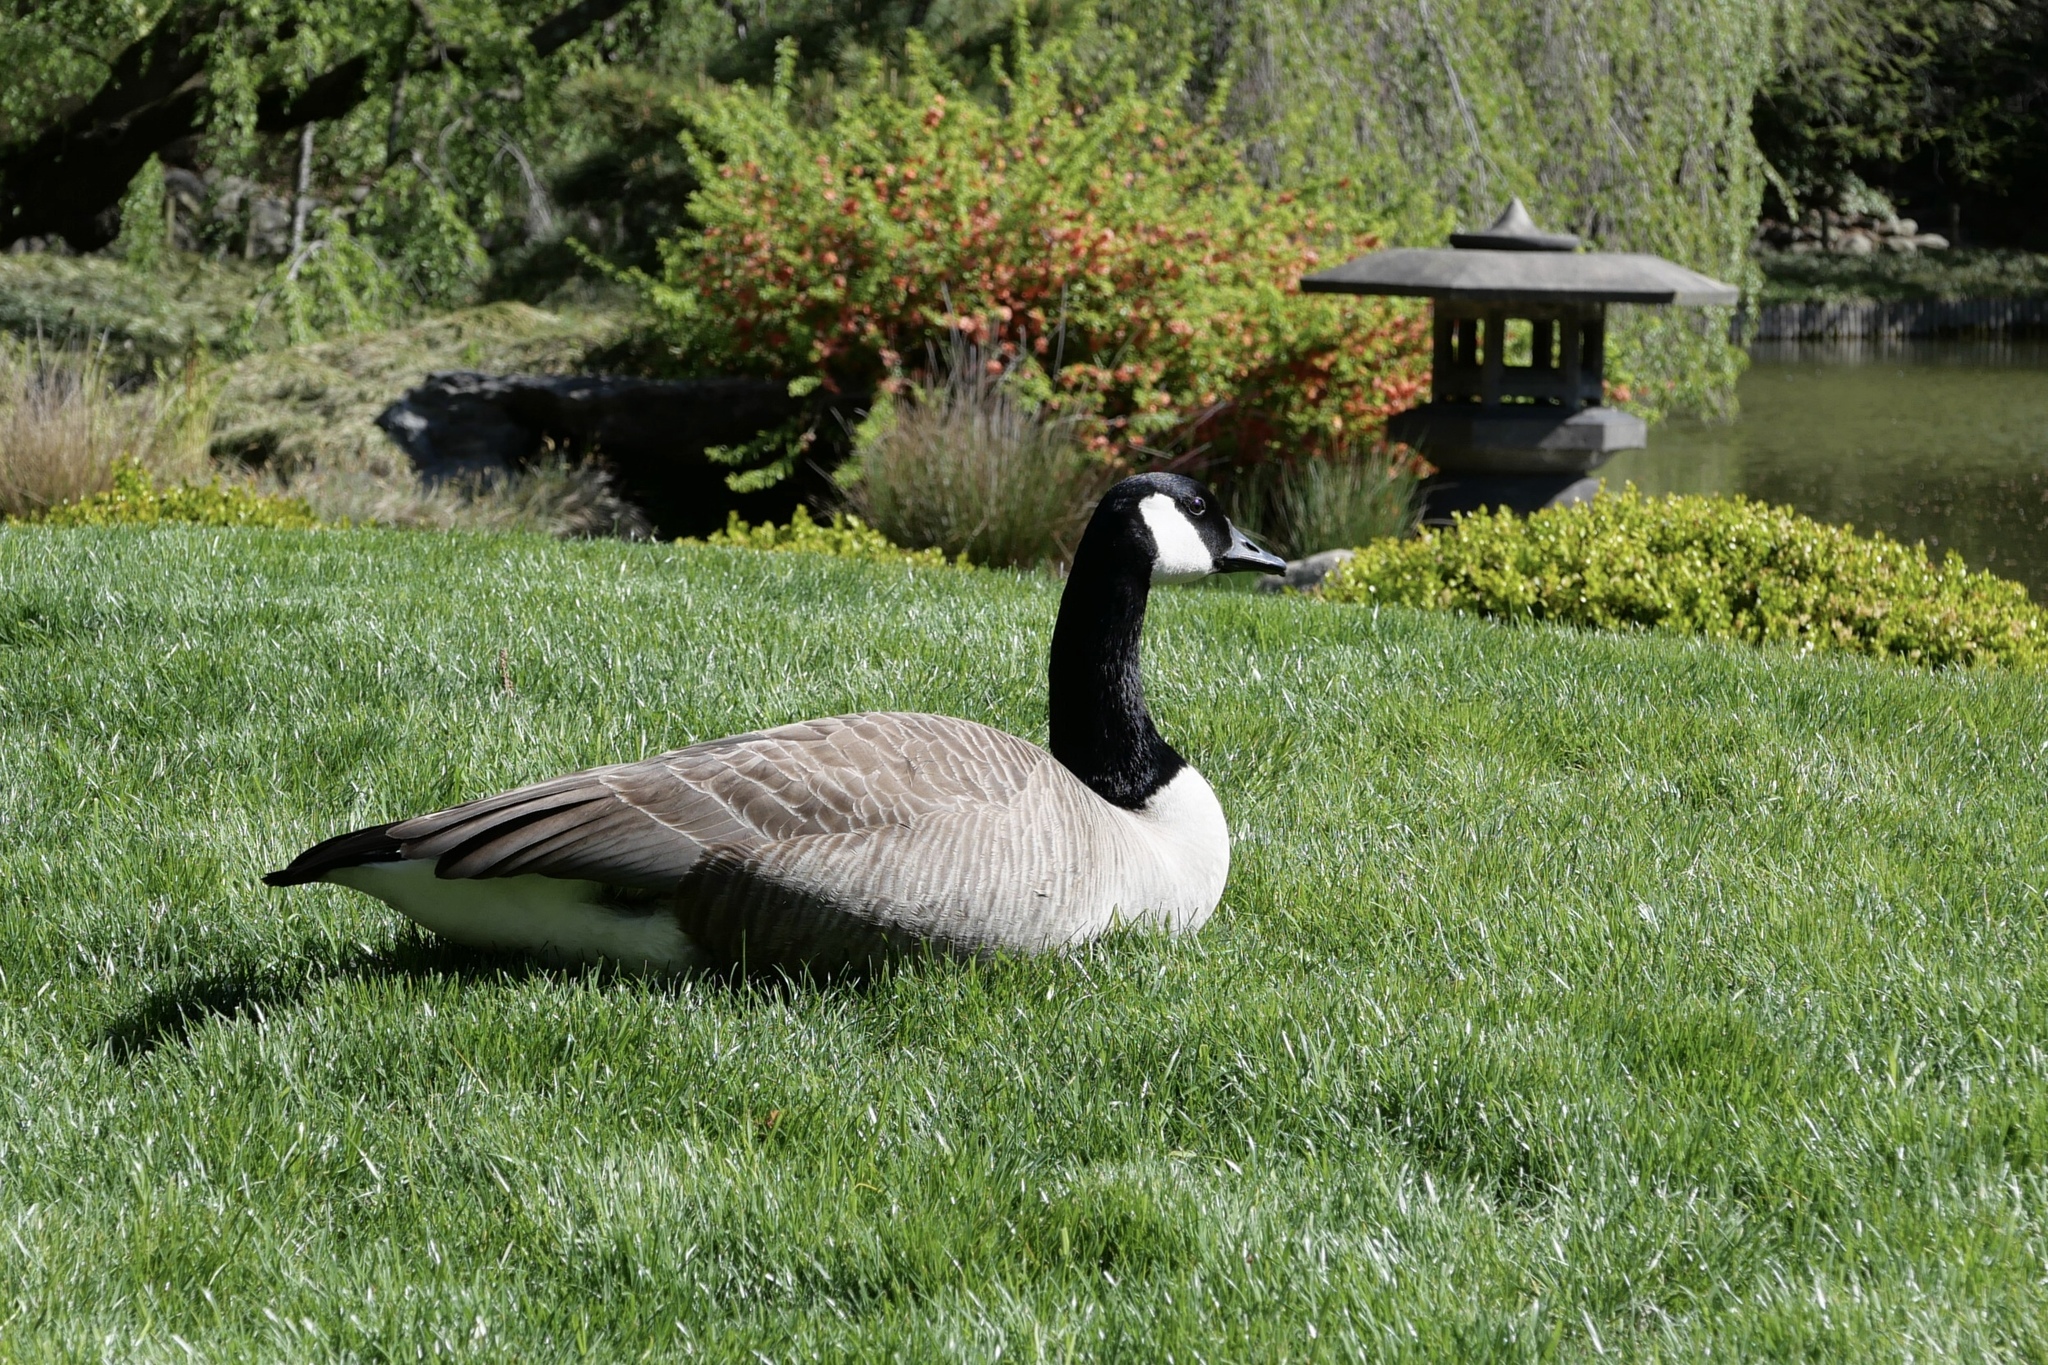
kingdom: Animalia
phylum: Chordata
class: Aves
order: Anseriformes
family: Anatidae
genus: Branta
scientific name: Branta canadensis
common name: Canada goose
